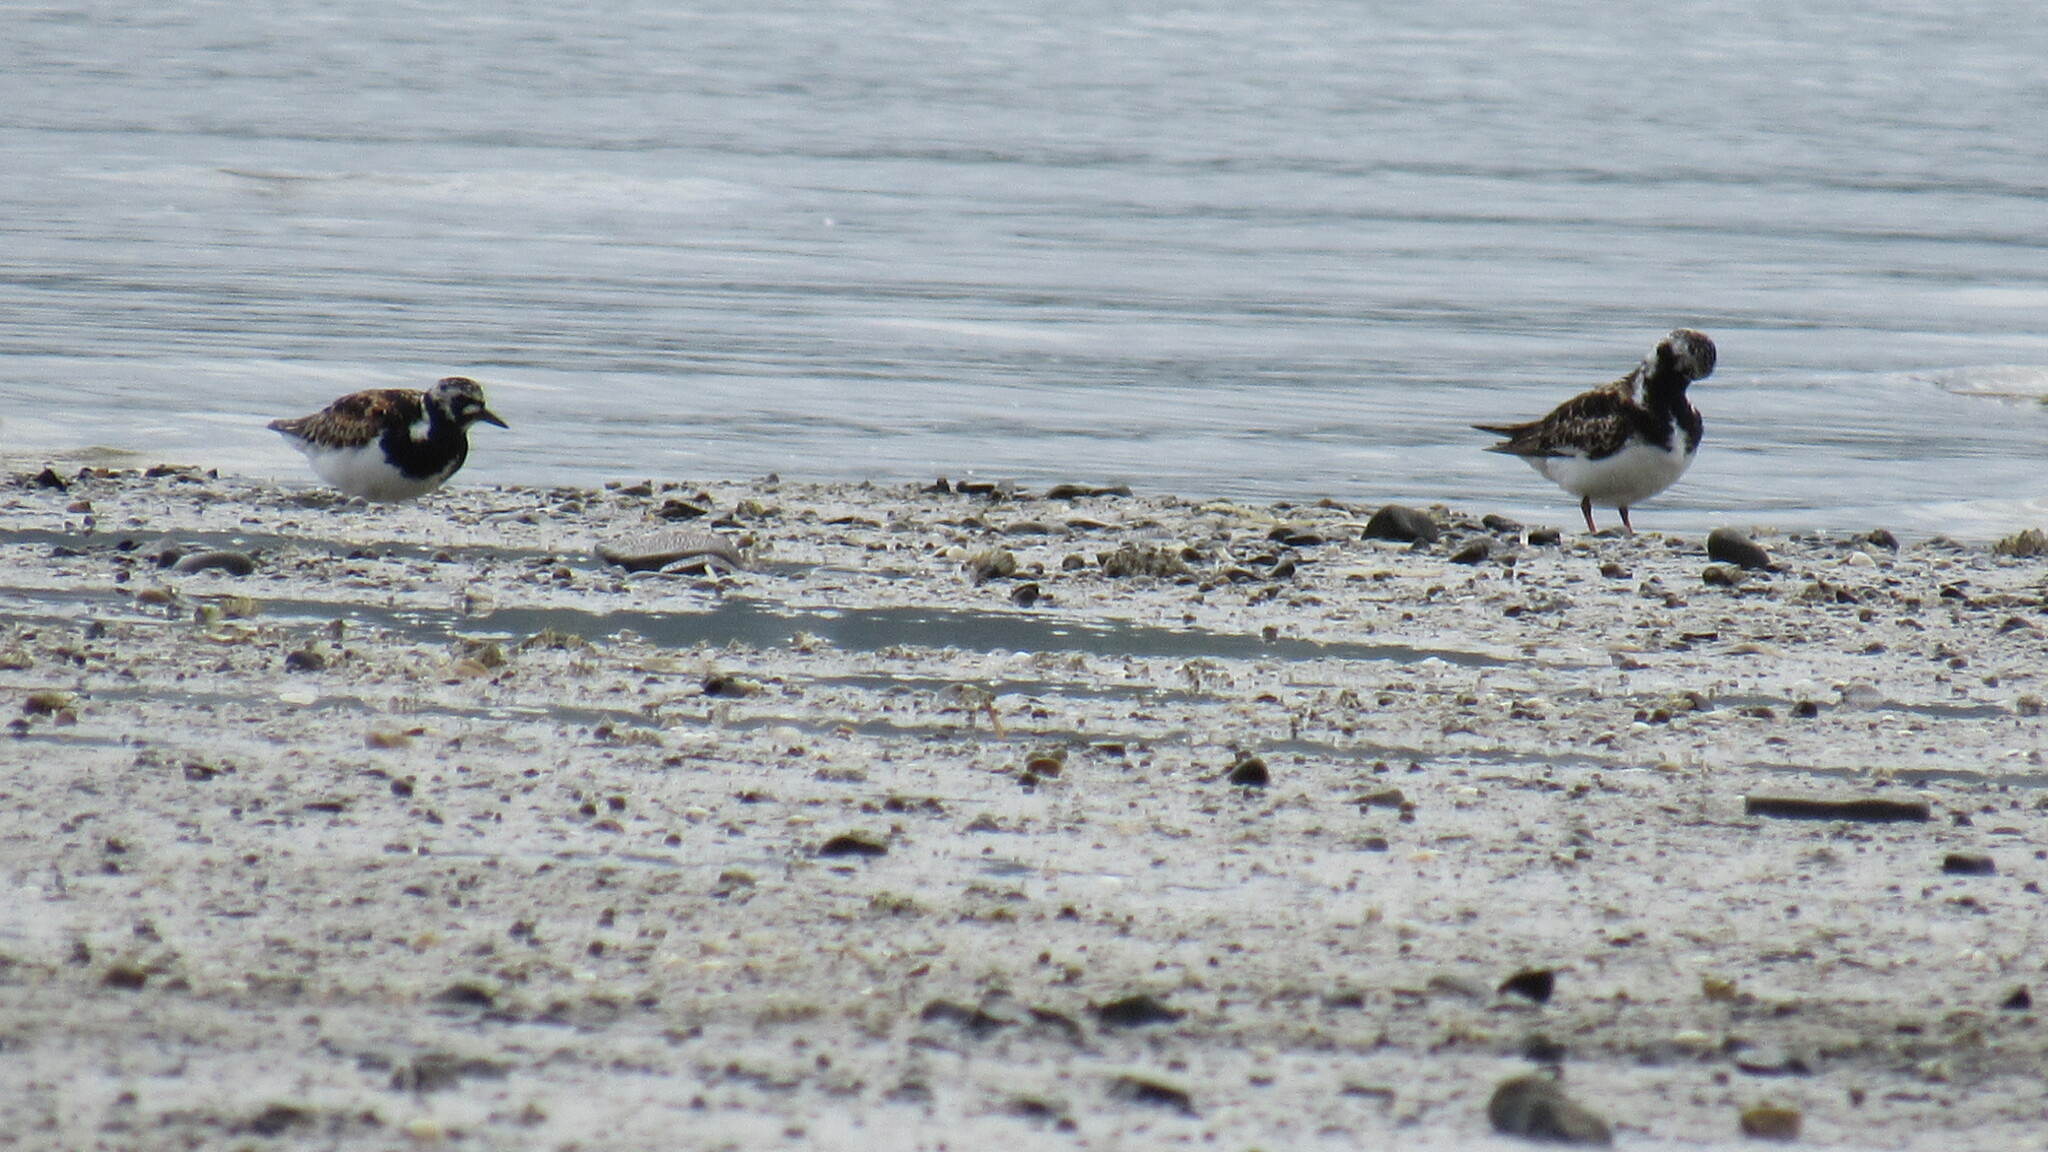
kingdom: Animalia
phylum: Chordata
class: Aves
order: Charadriiformes
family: Scolopacidae
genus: Arenaria
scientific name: Arenaria interpres
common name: Ruddy turnstone
